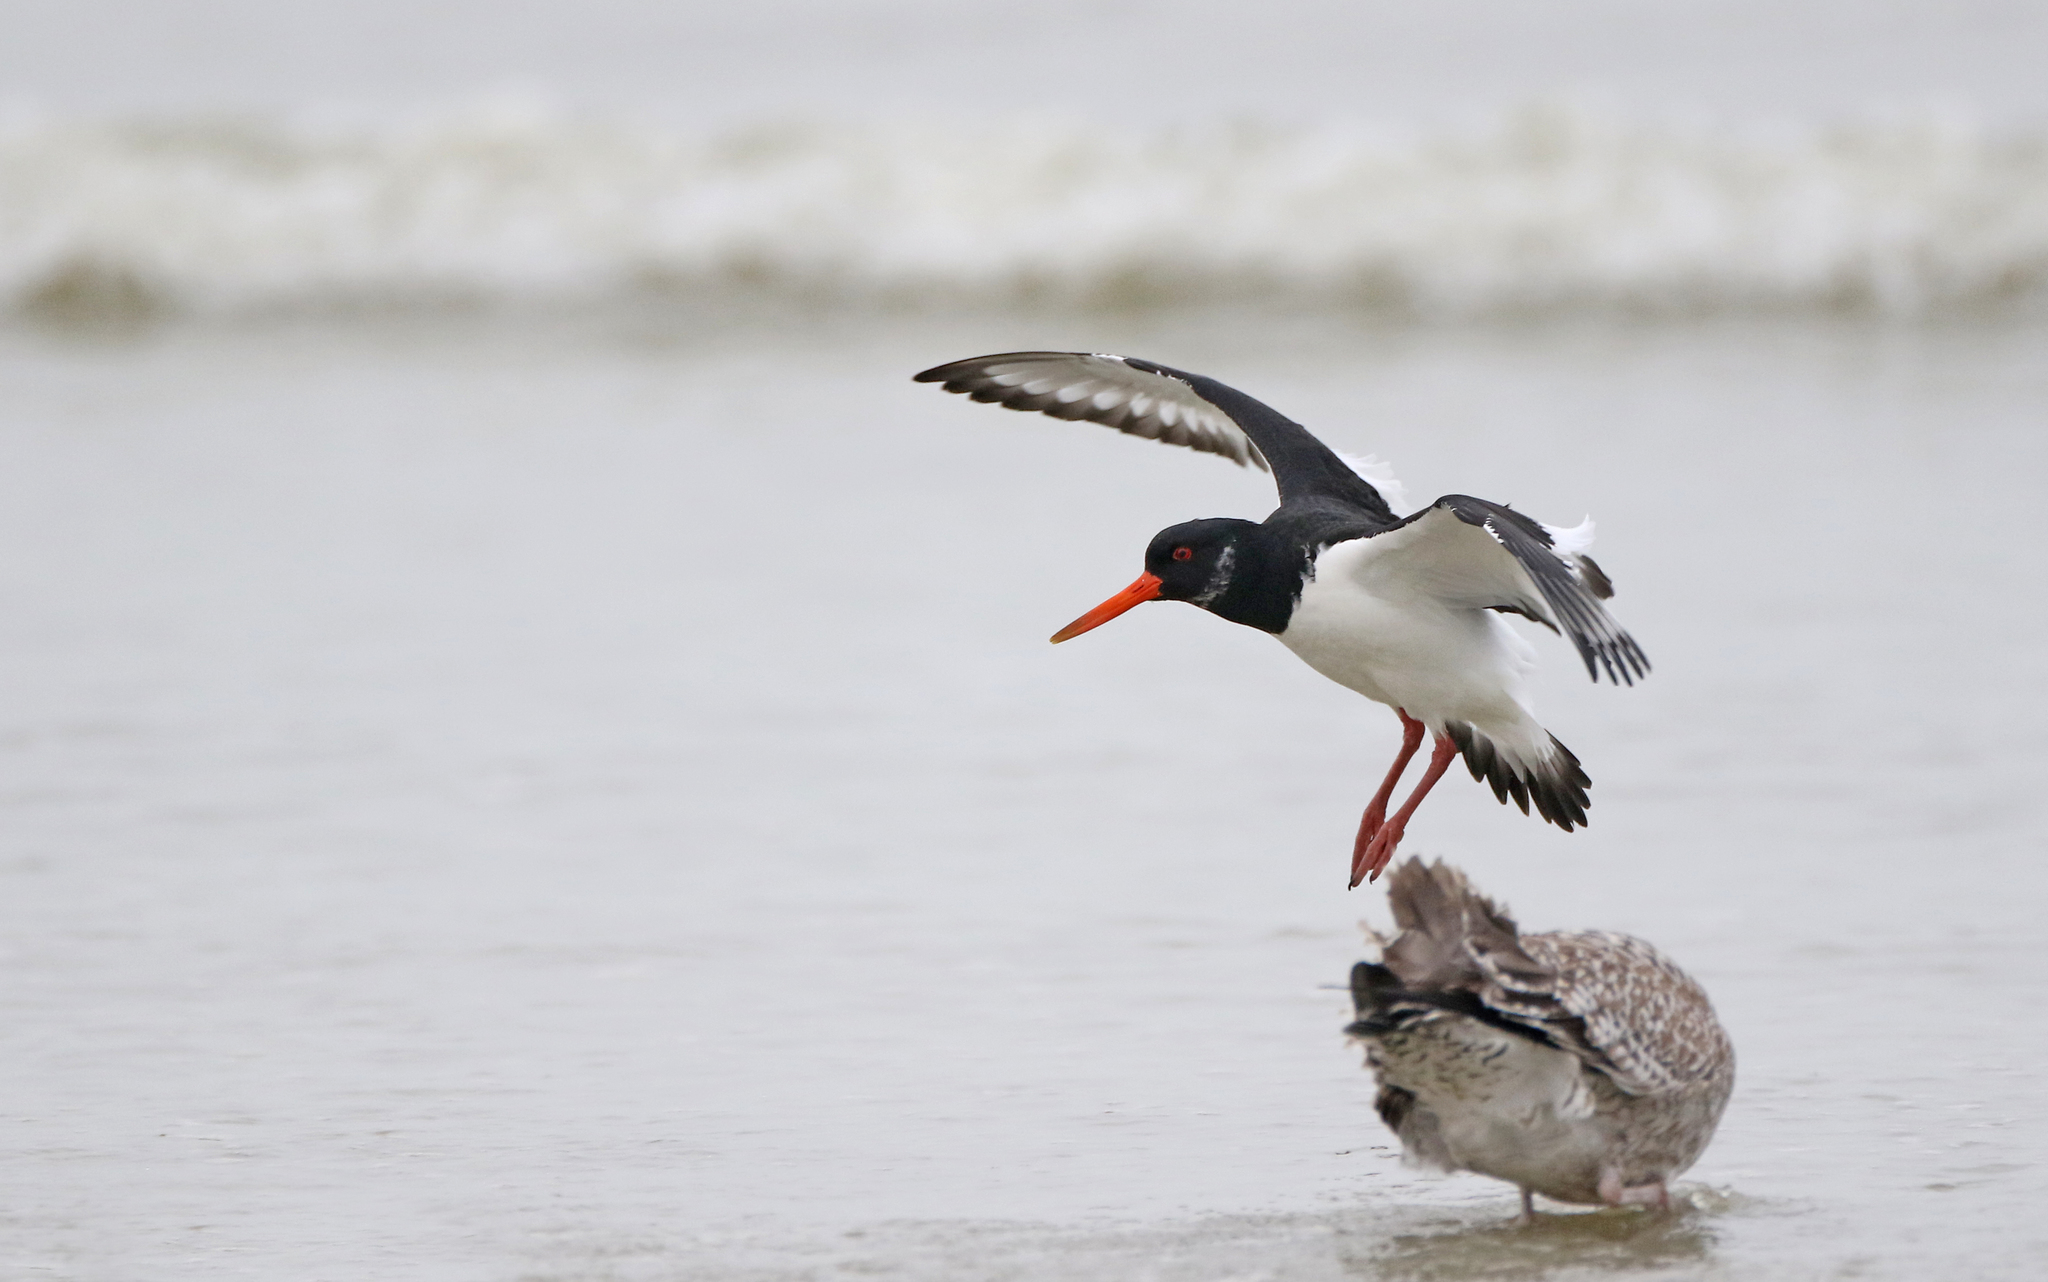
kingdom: Animalia
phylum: Chordata
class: Aves
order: Charadriiformes
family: Haematopodidae
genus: Haematopus
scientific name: Haematopus ostralegus
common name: Eurasian oystercatcher
